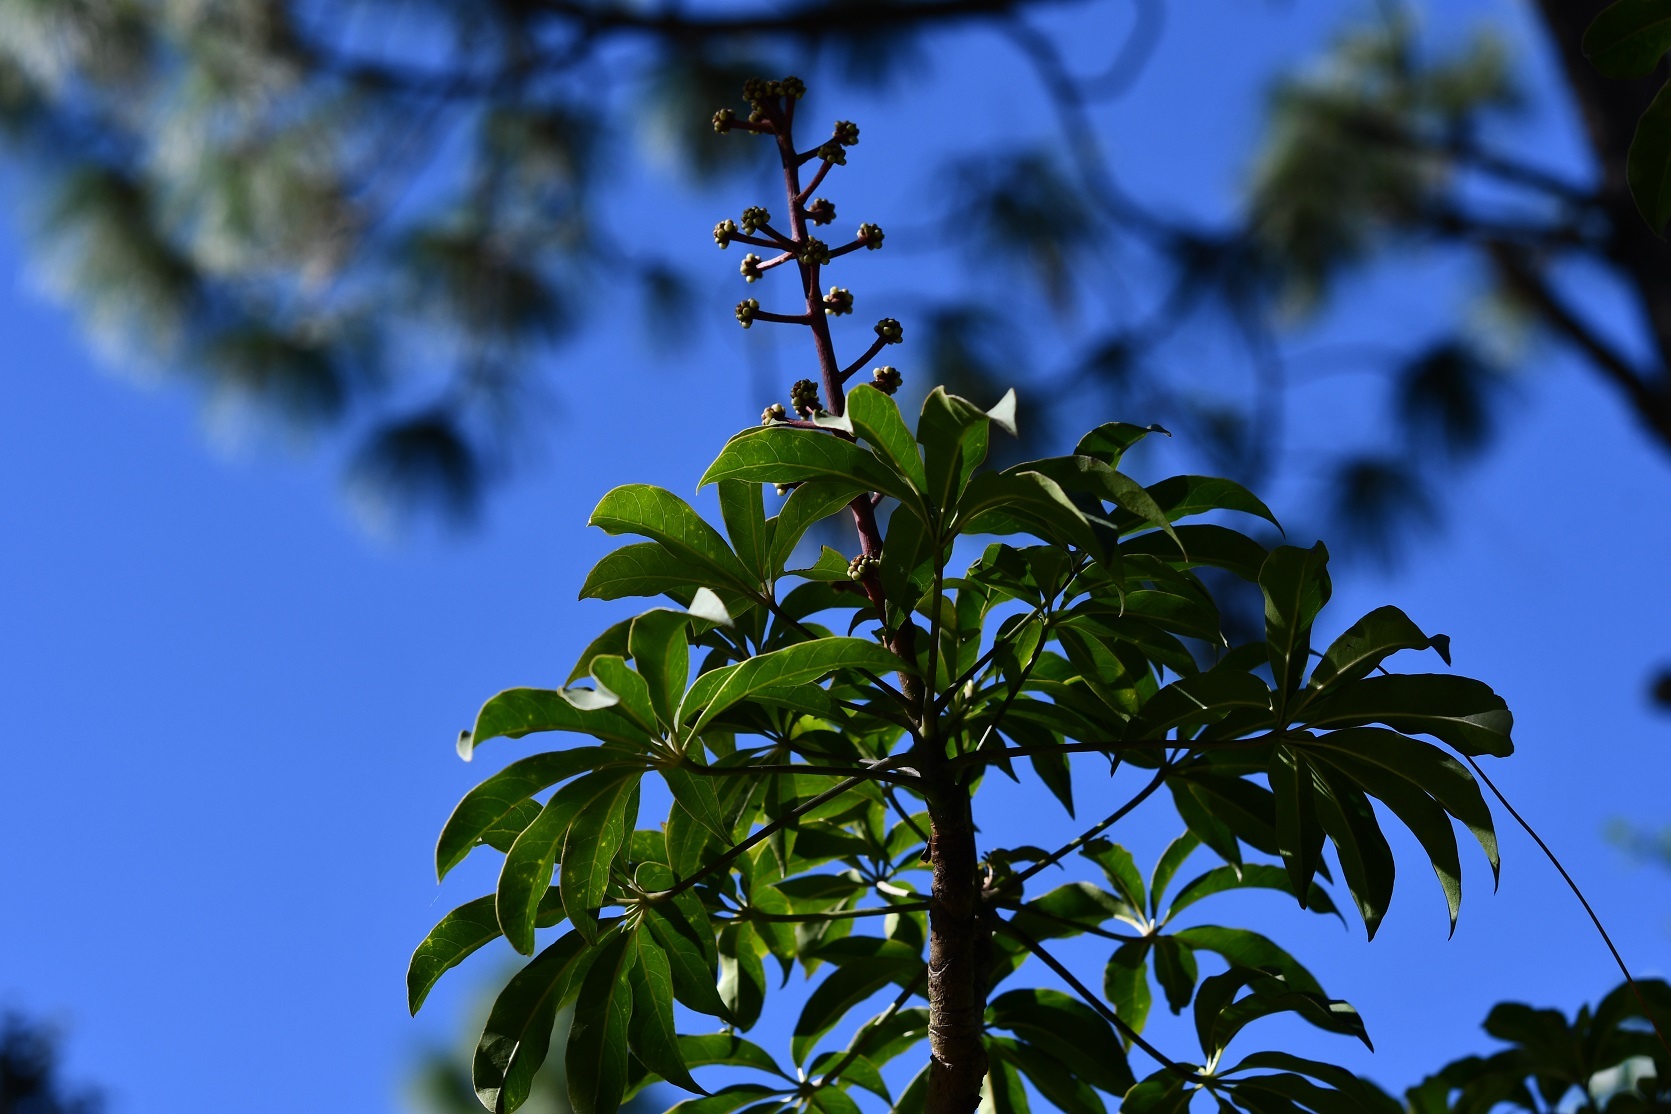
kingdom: Plantae
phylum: Tracheophyta
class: Magnoliopsida
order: Apiales
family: Araliaceae
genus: Oreopanax
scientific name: Oreopanax xalapensis
